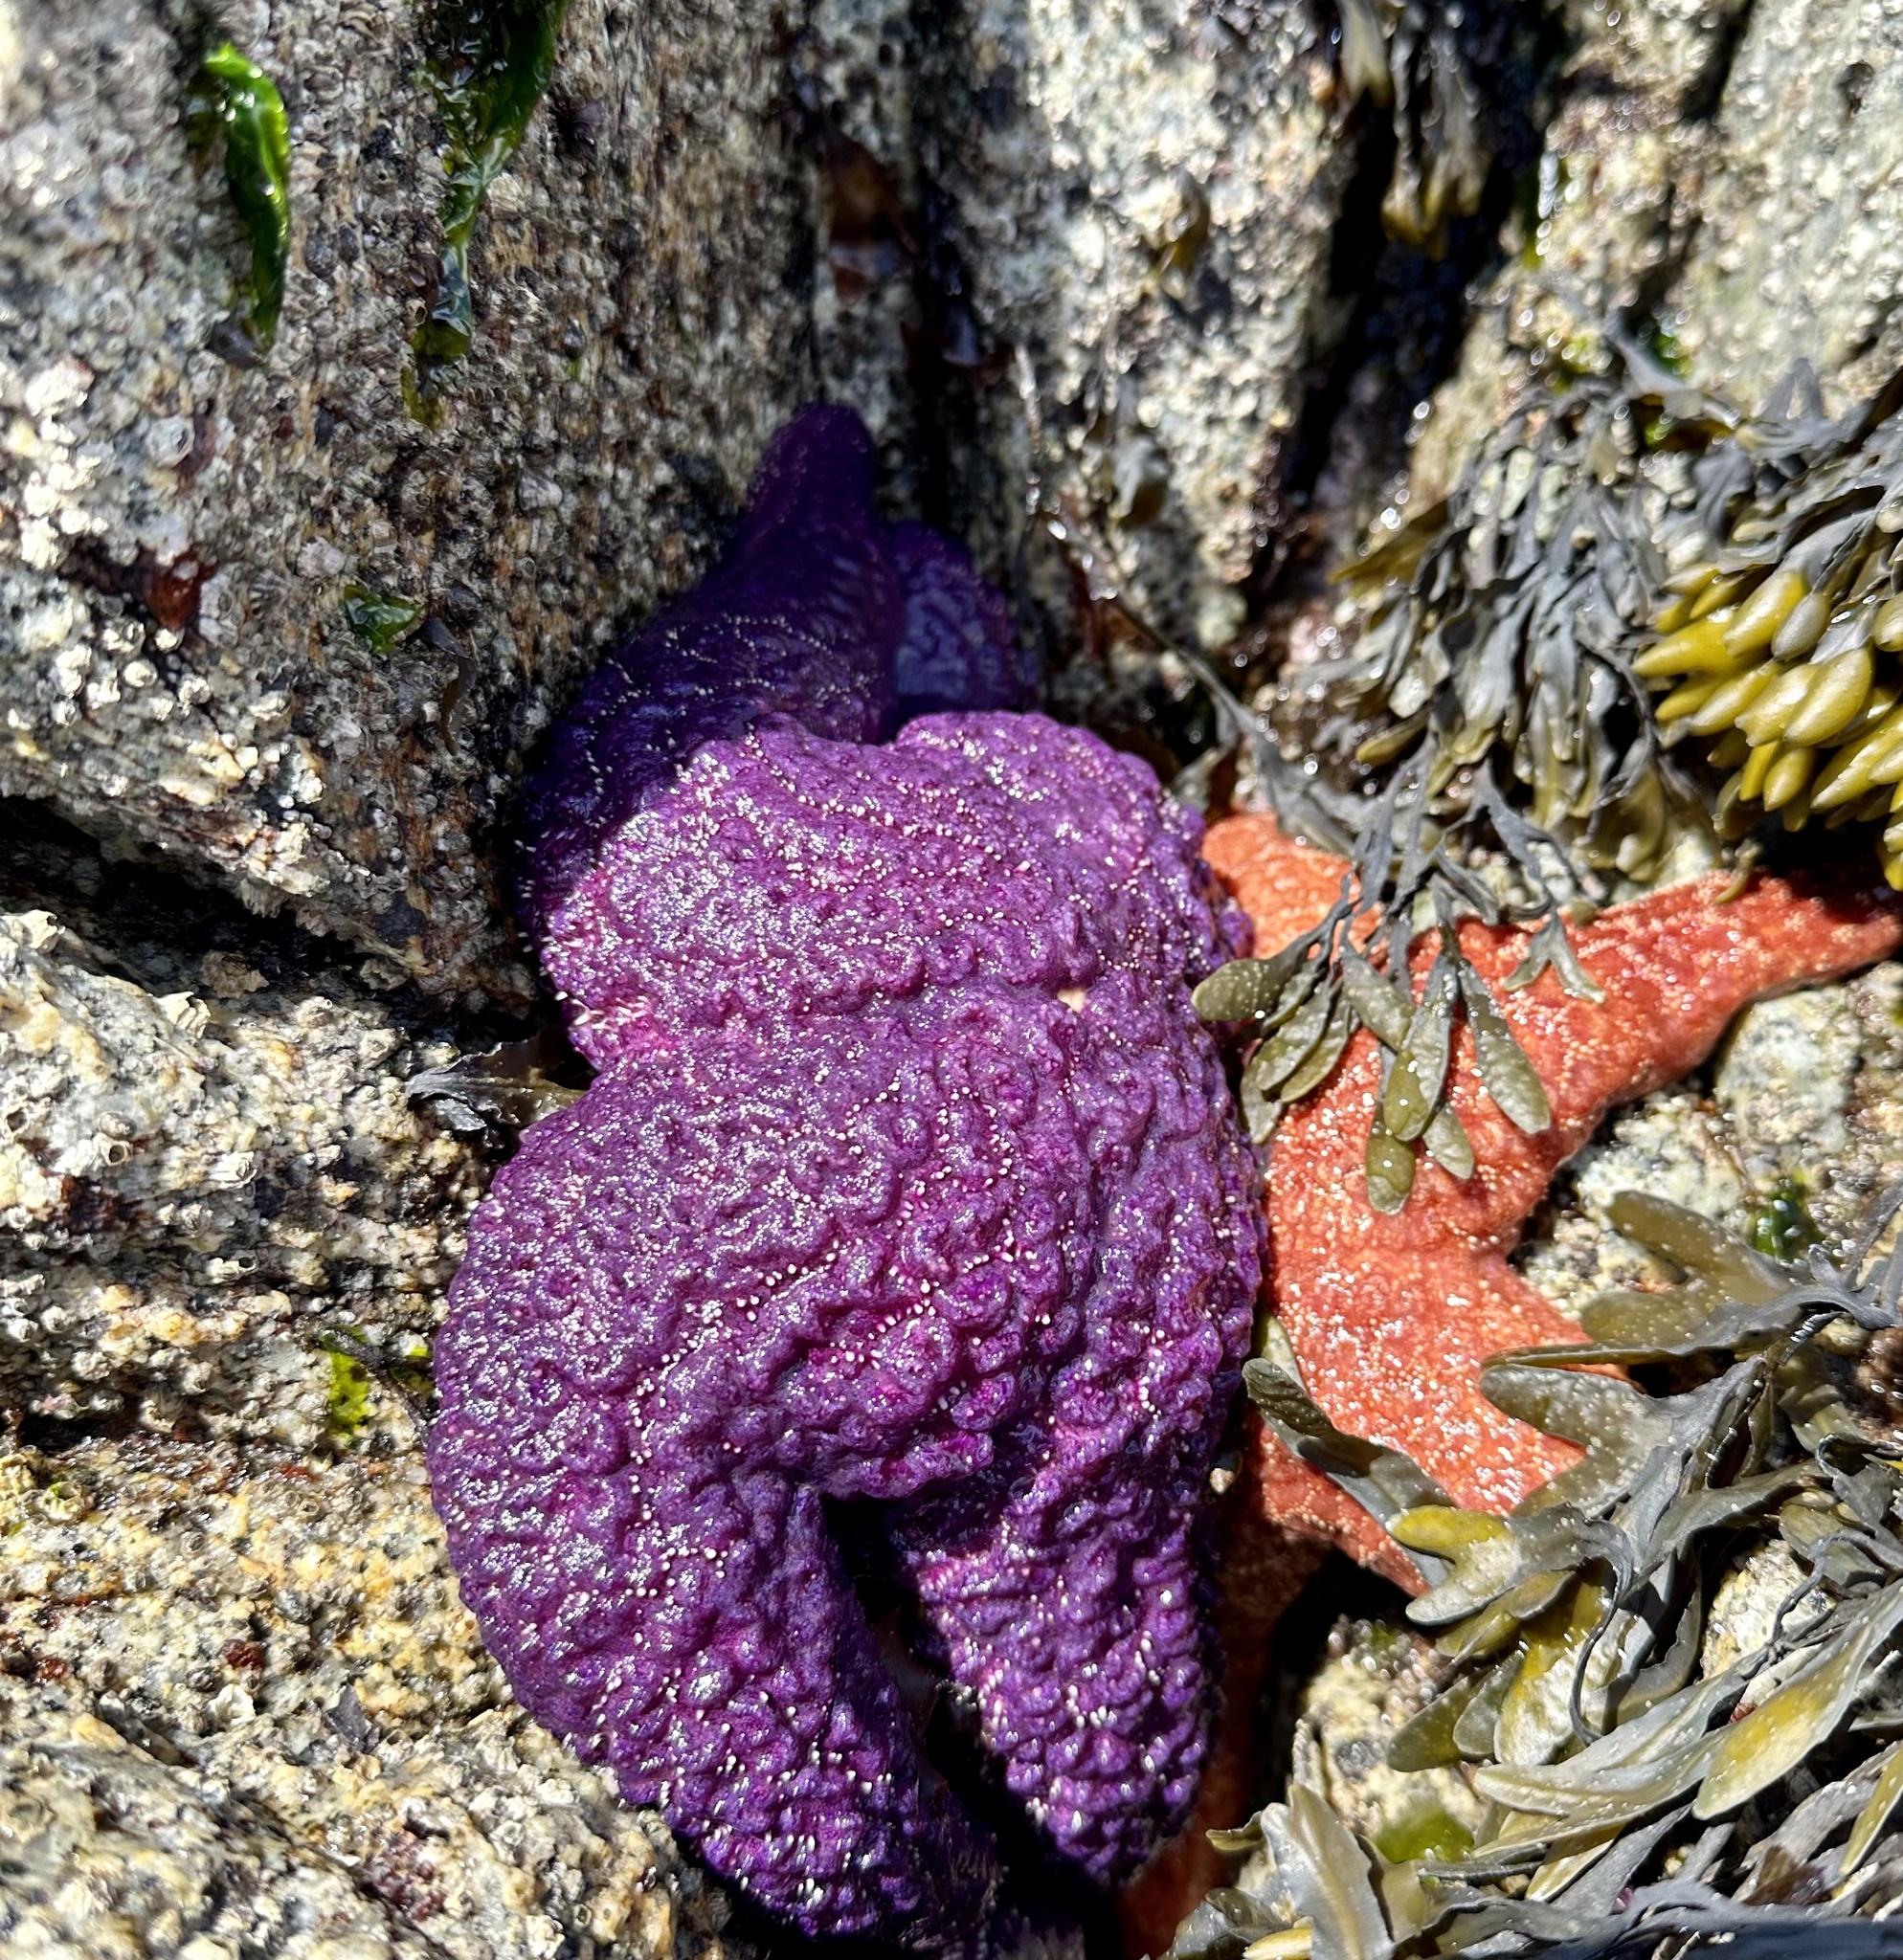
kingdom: Animalia
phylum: Echinodermata
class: Asteroidea
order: Forcipulatida
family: Asteriidae
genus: Pisaster
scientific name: Pisaster ochraceus
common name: Ochre stars
